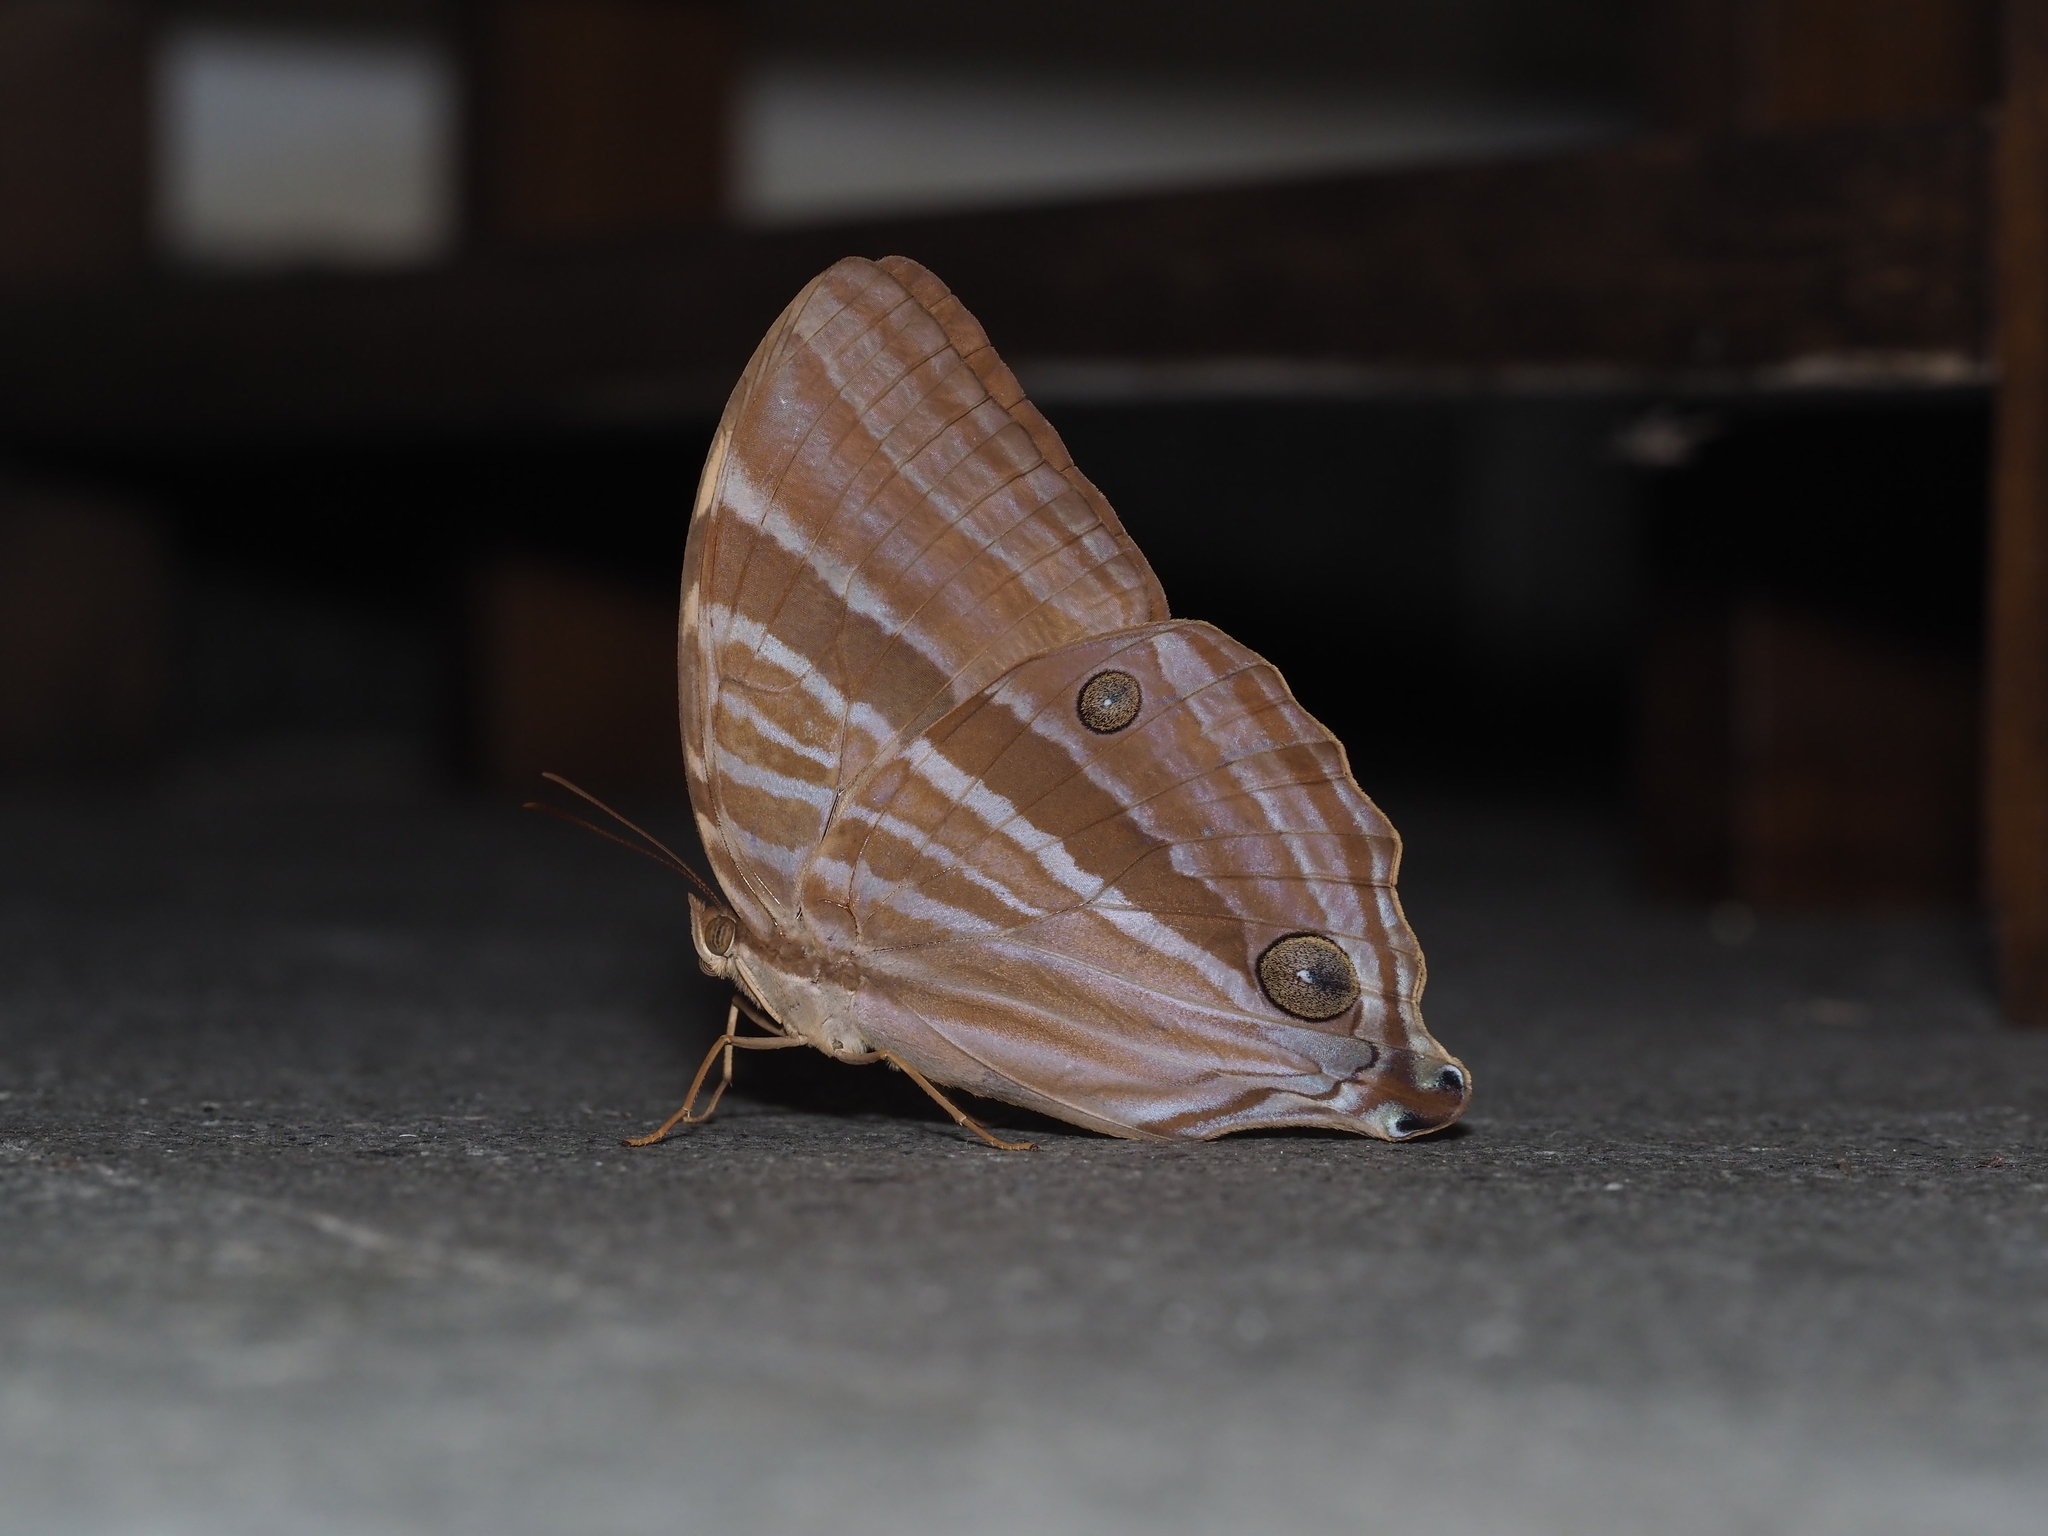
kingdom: Animalia
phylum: Arthropoda
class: Insecta
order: Lepidoptera
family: Nymphalidae
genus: Amathusia
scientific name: Amathusia phidippus
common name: Palm king
